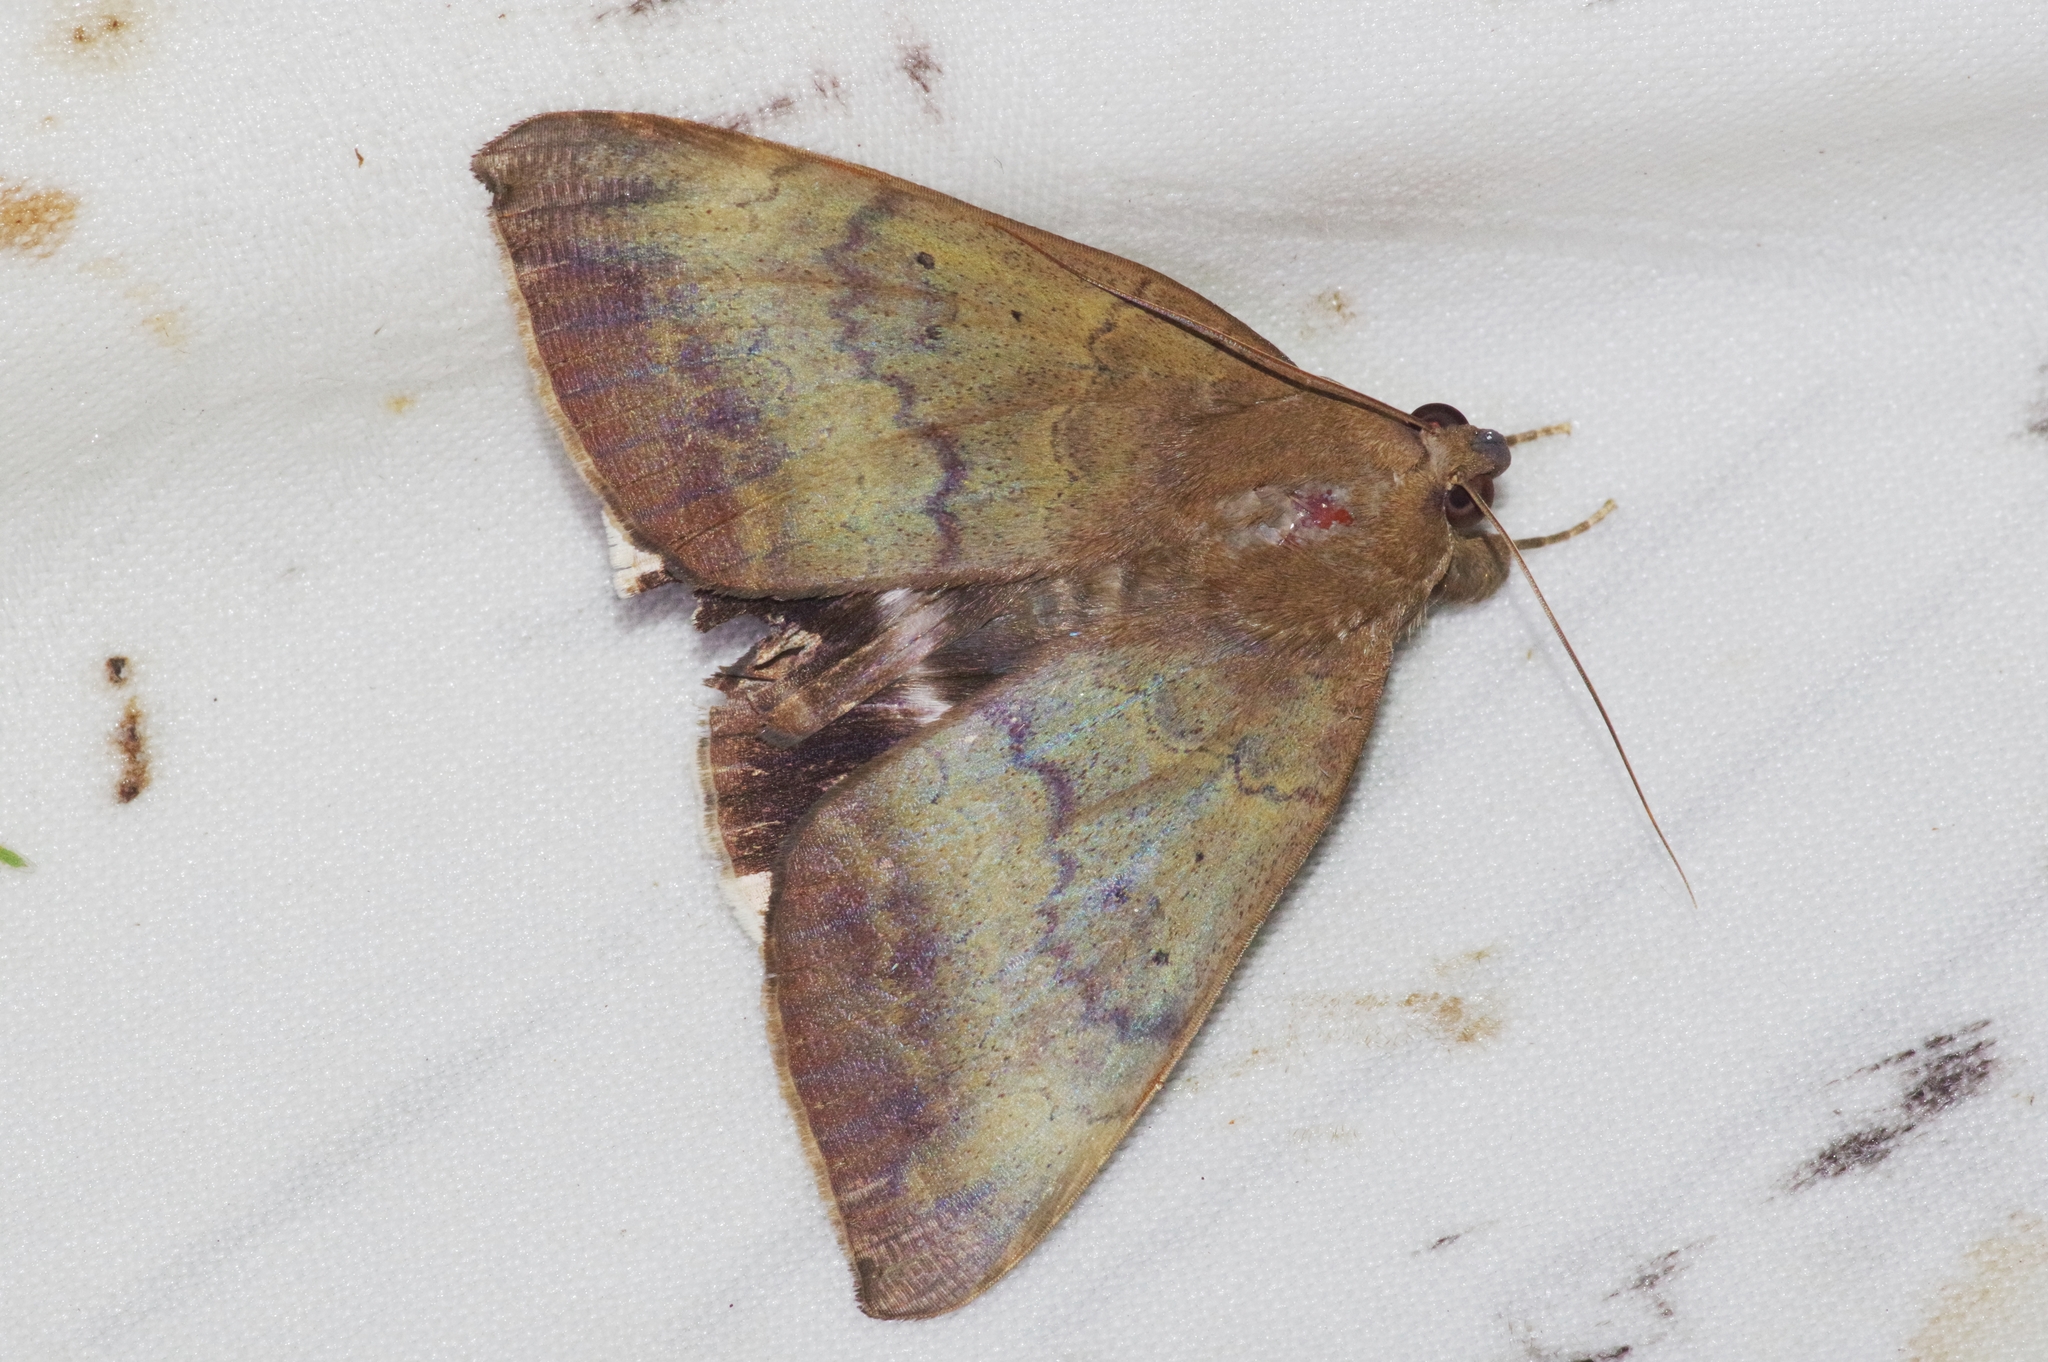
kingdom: Animalia
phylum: Arthropoda
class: Insecta
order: Lepidoptera
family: Erebidae
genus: Achaea
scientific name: Achaea serva
